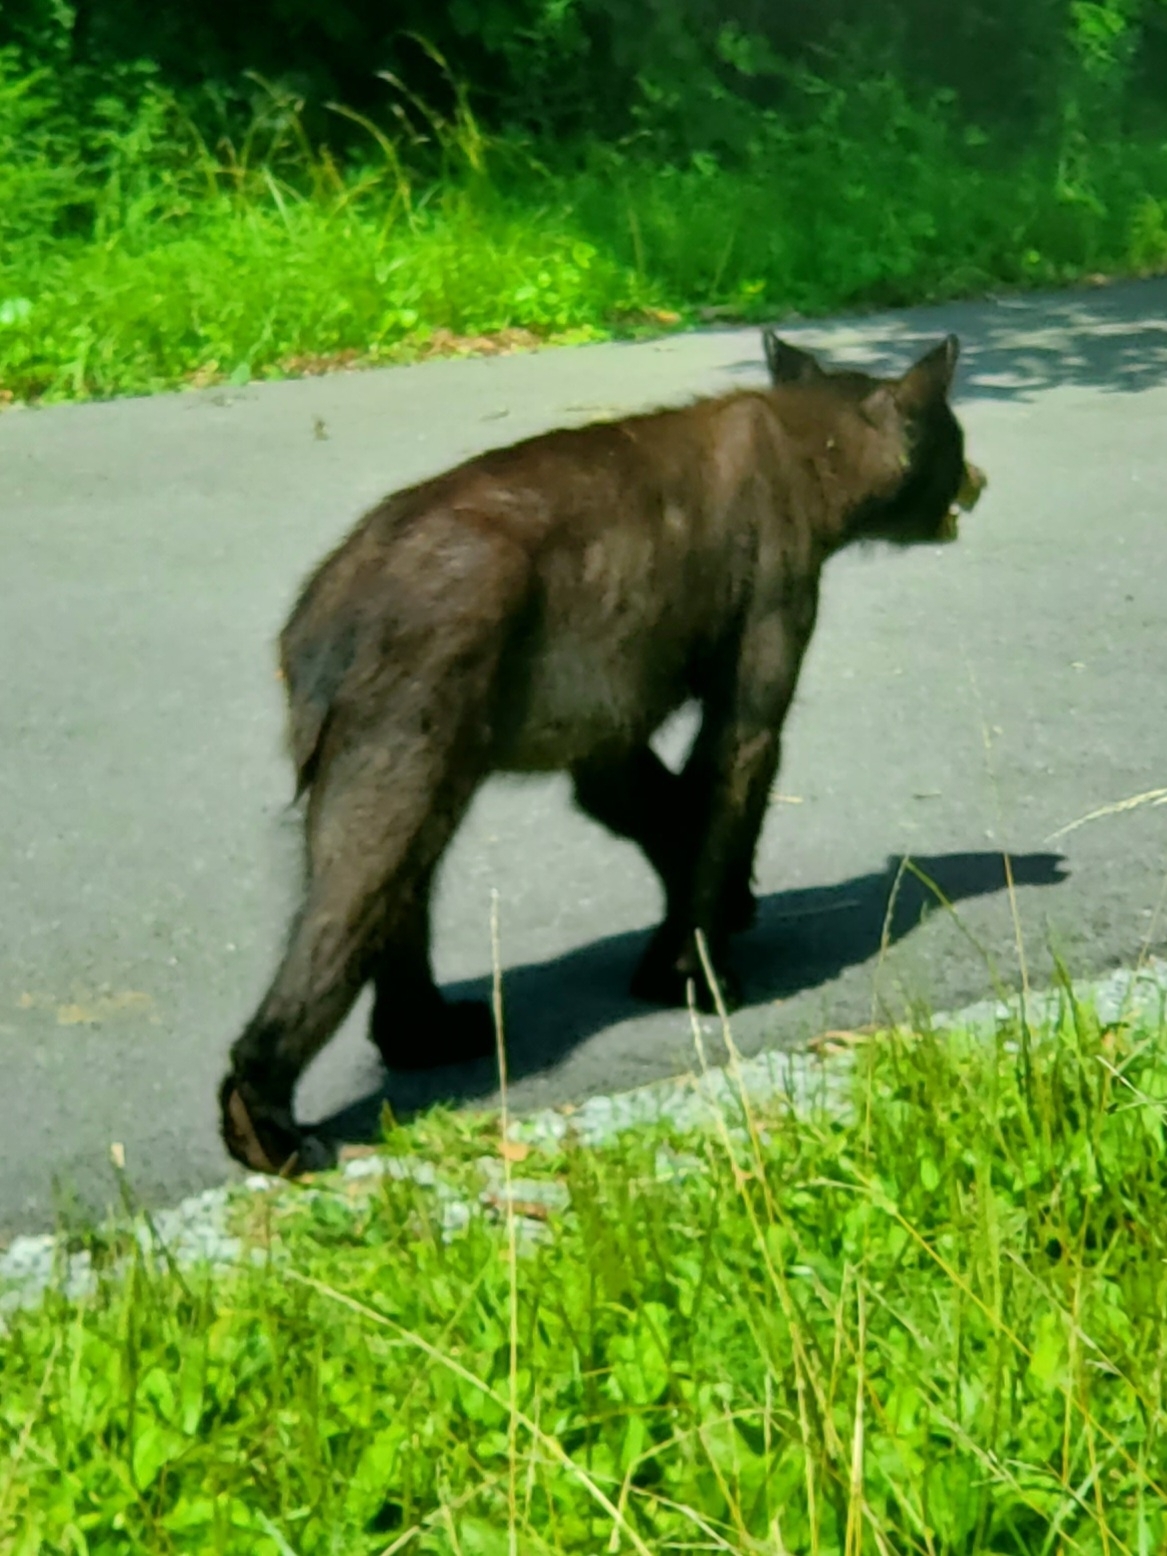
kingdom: Animalia
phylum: Chordata
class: Mammalia
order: Carnivora
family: Ursidae
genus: Ursus
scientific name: Ursus americanus
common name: American black bear
